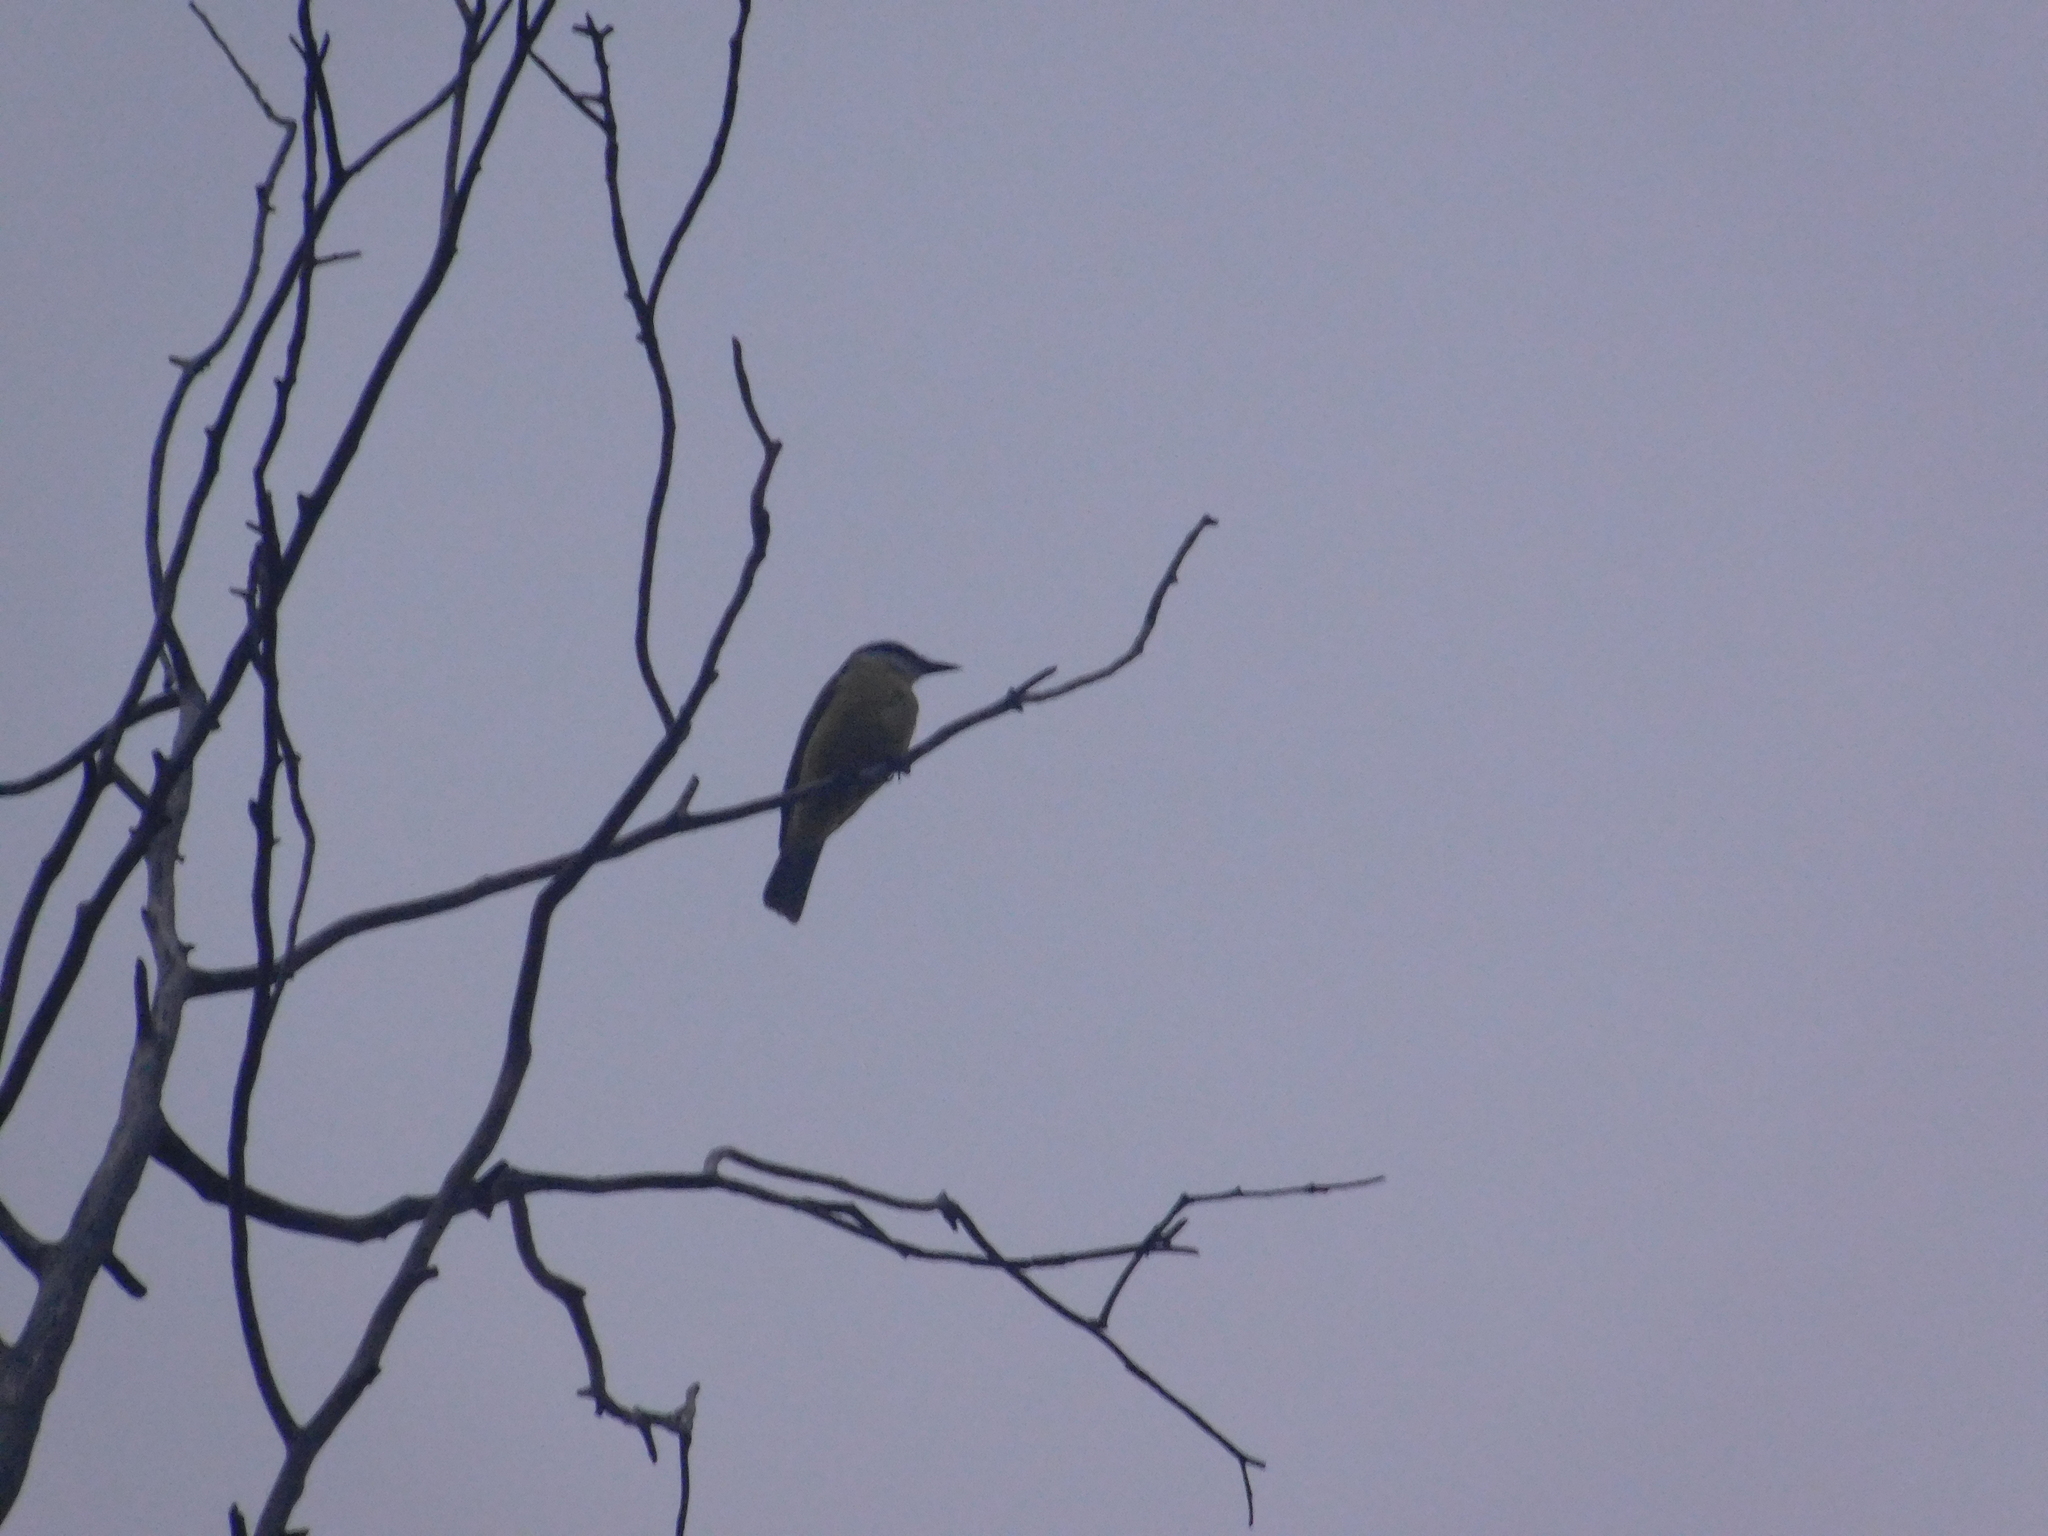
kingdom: Animalia
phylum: Chordata
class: Aves
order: Passeriformes
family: Tyrannidae
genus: Pitangus
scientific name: Pitangus sulphuratus
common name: Great kiskadee
